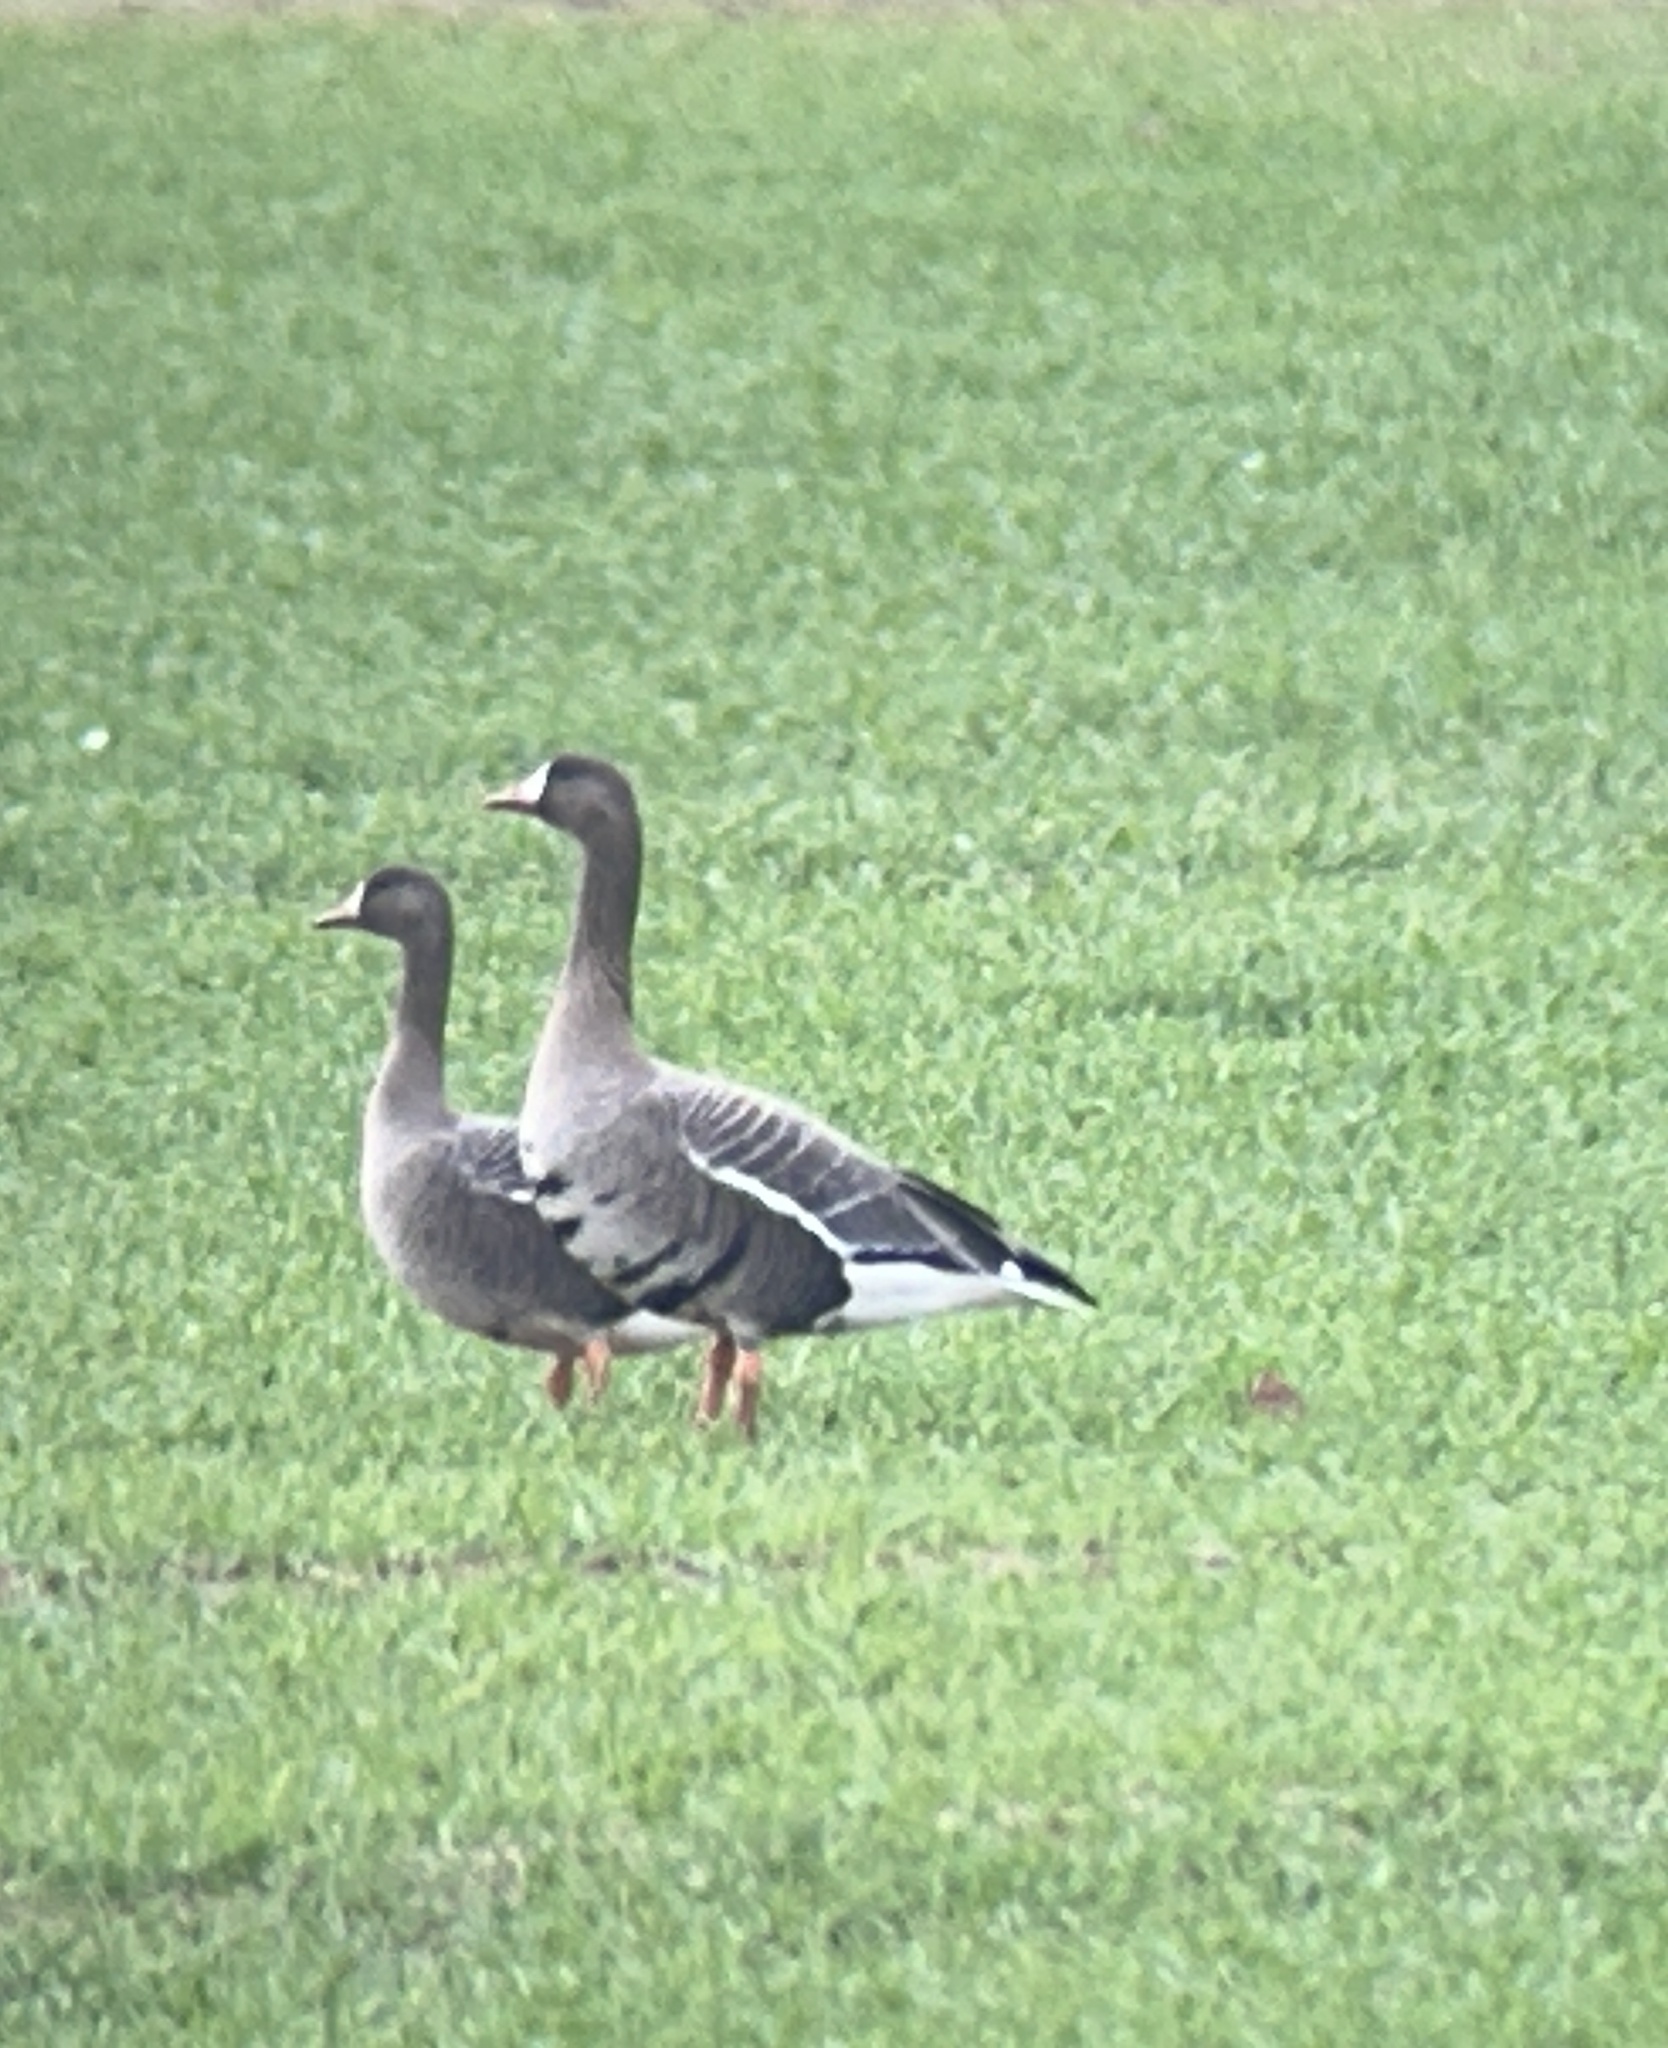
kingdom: Animalia
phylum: Chordata
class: Aves
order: Anseriformes
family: Anatidae
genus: Anser
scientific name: Anser albifrons
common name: Greater white-fronted goose
